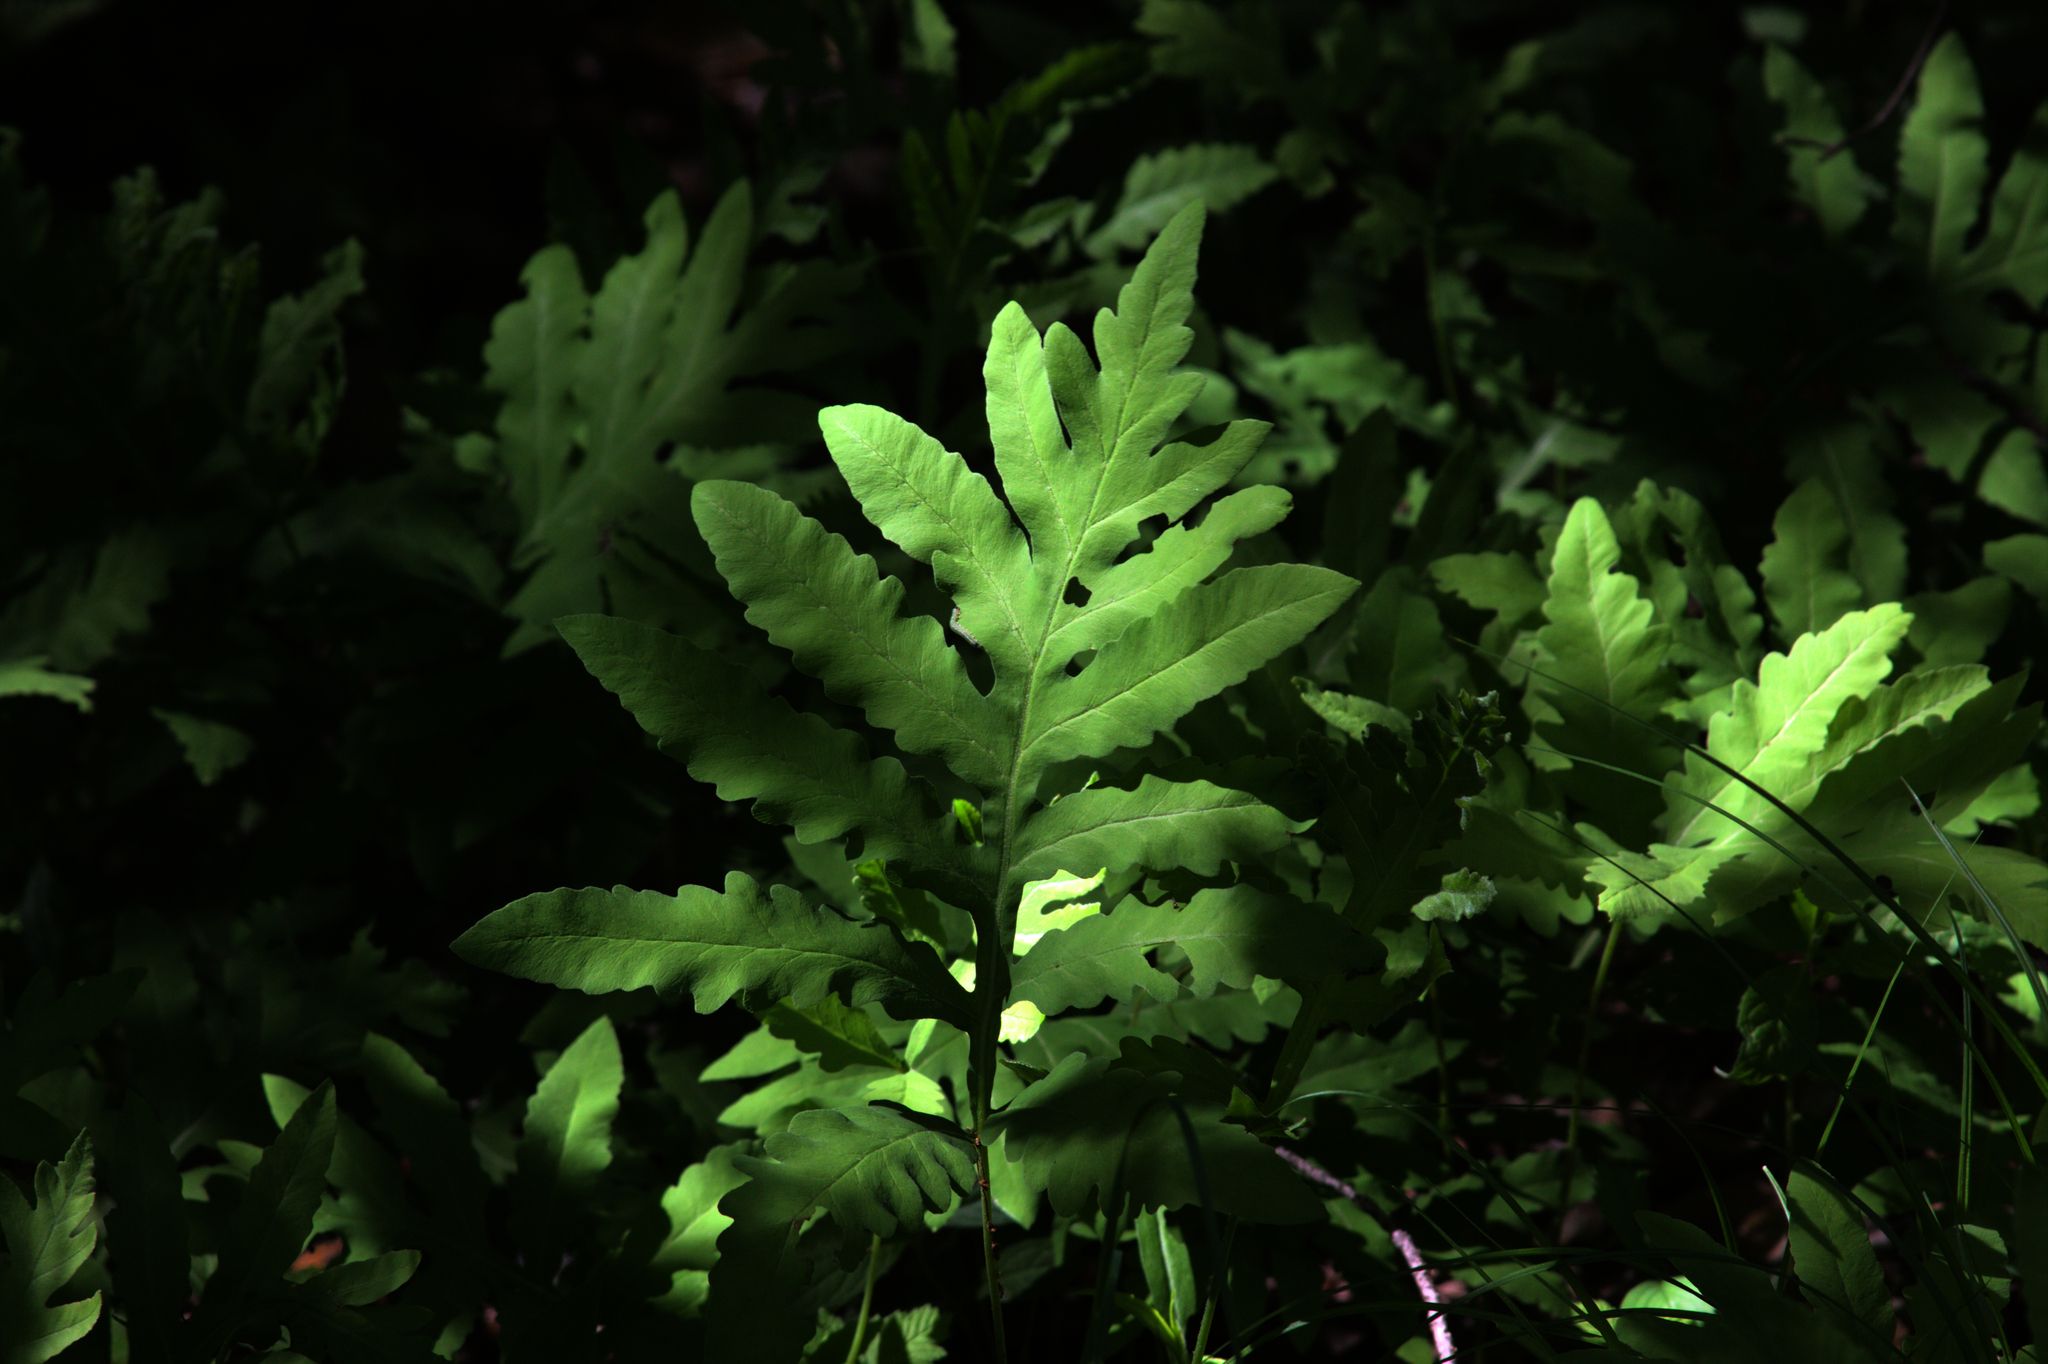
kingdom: Plantae
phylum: Tracheophyta
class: Polypodiopsida
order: Polypodiales
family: Onocleaceae
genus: Onoclea
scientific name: Onoclea sensibilis
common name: Sensitive fern
